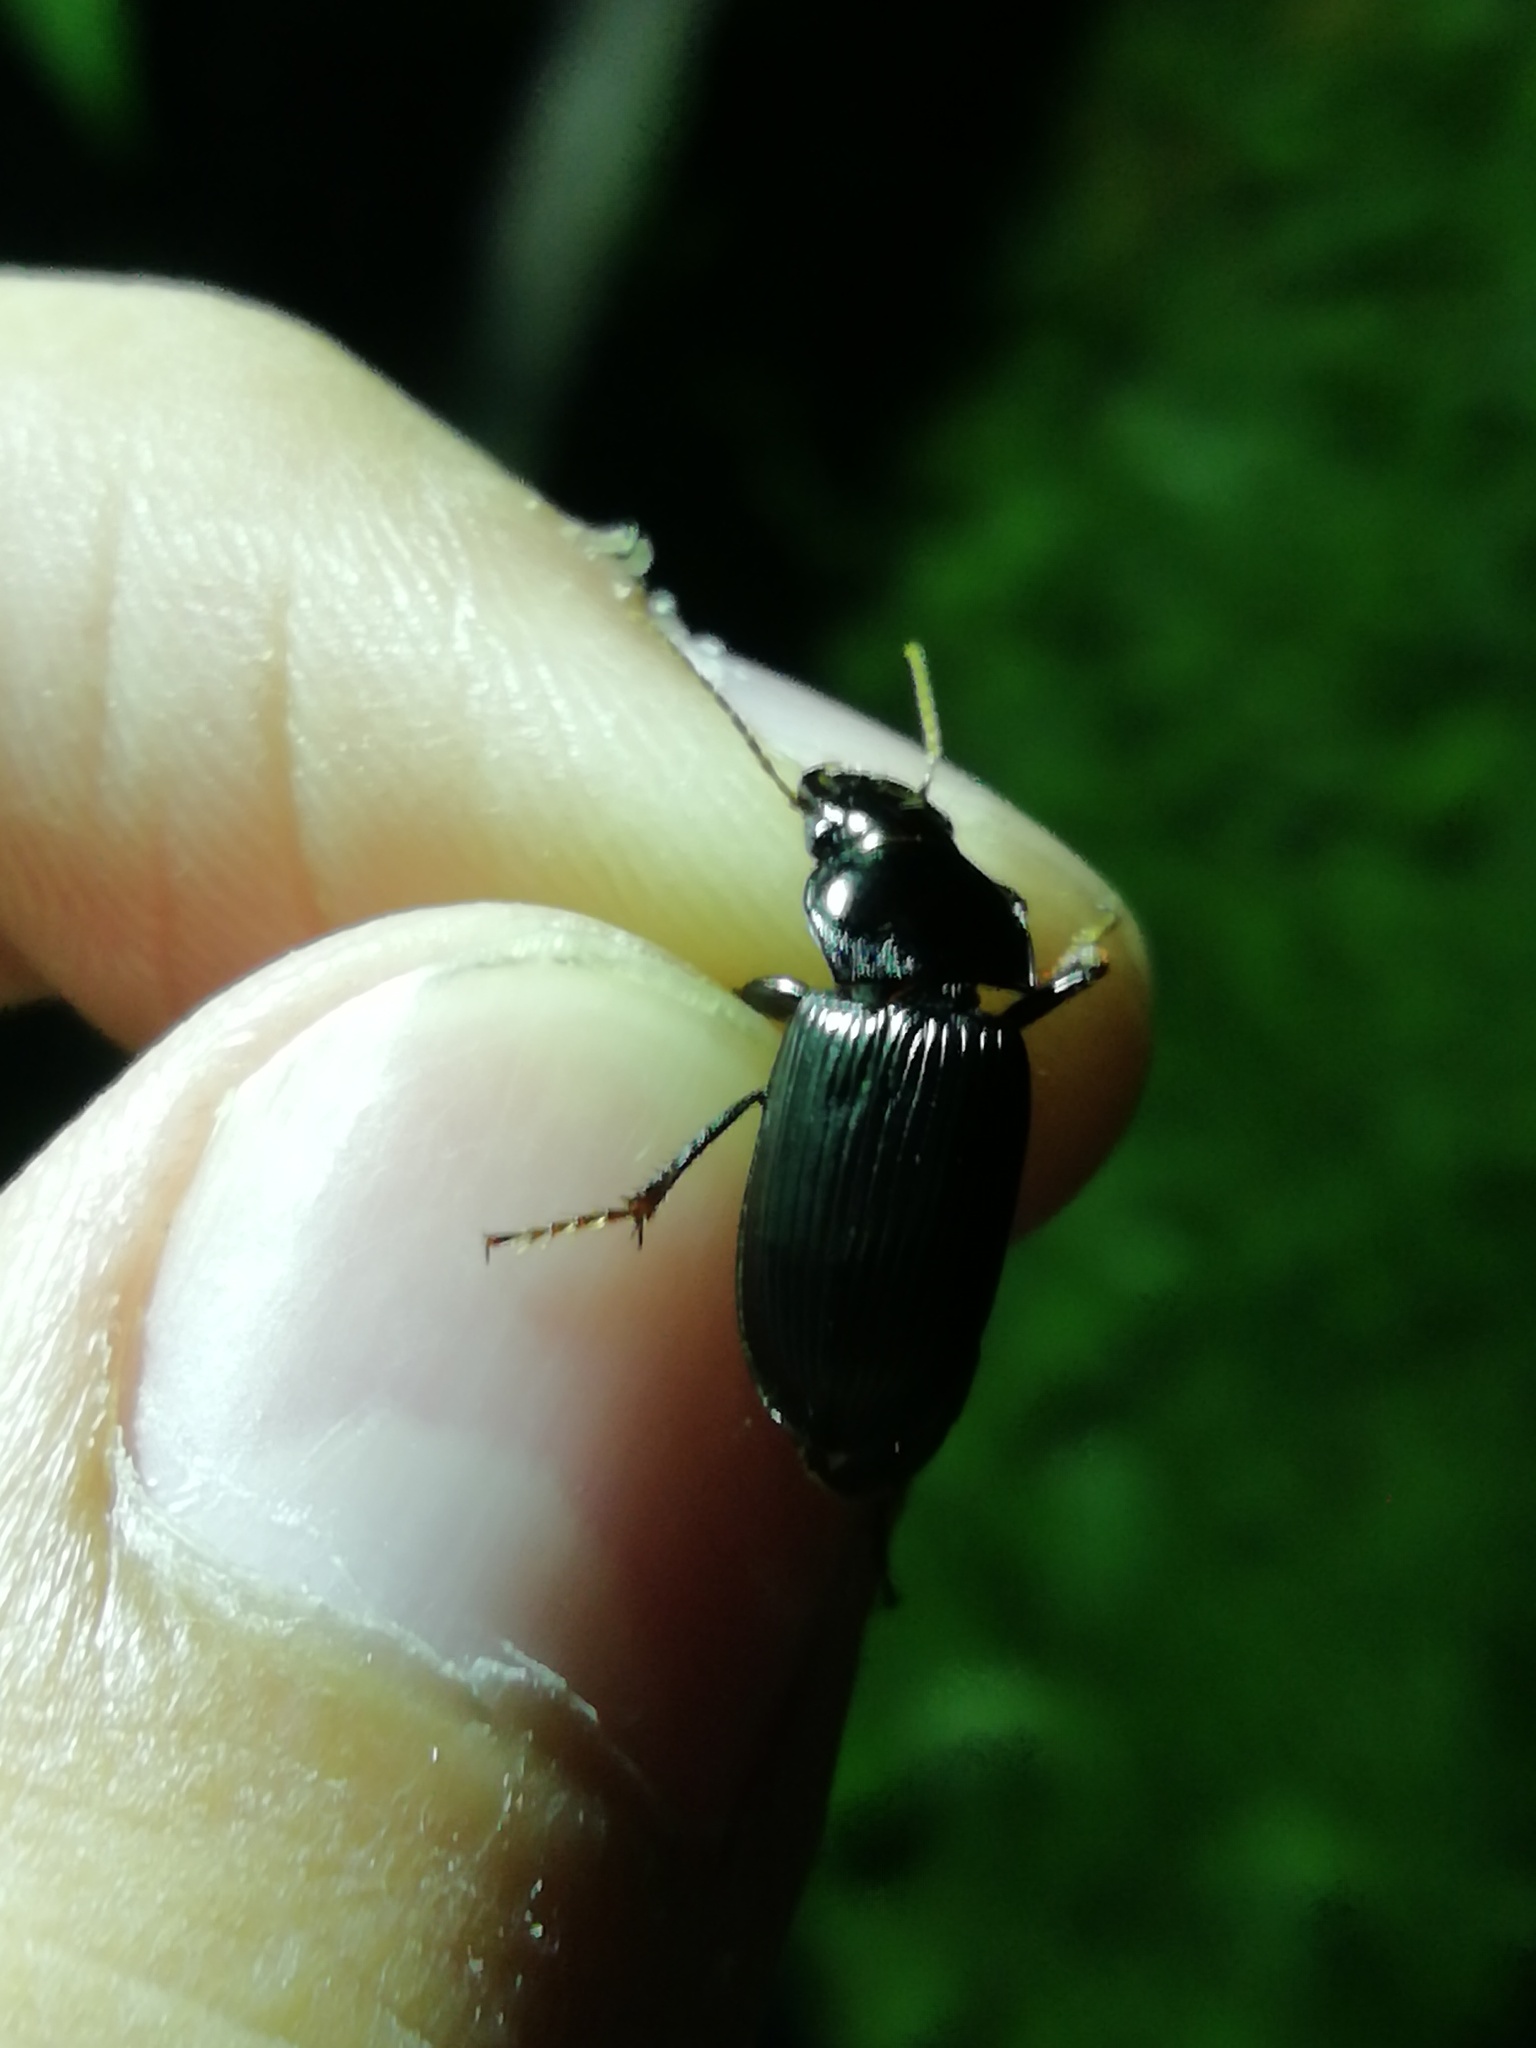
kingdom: Animalia
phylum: Arthropoda
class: Insecta
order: Coleoptera
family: Carabidae
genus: Anisodactylus
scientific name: Anisodactylus signatus
